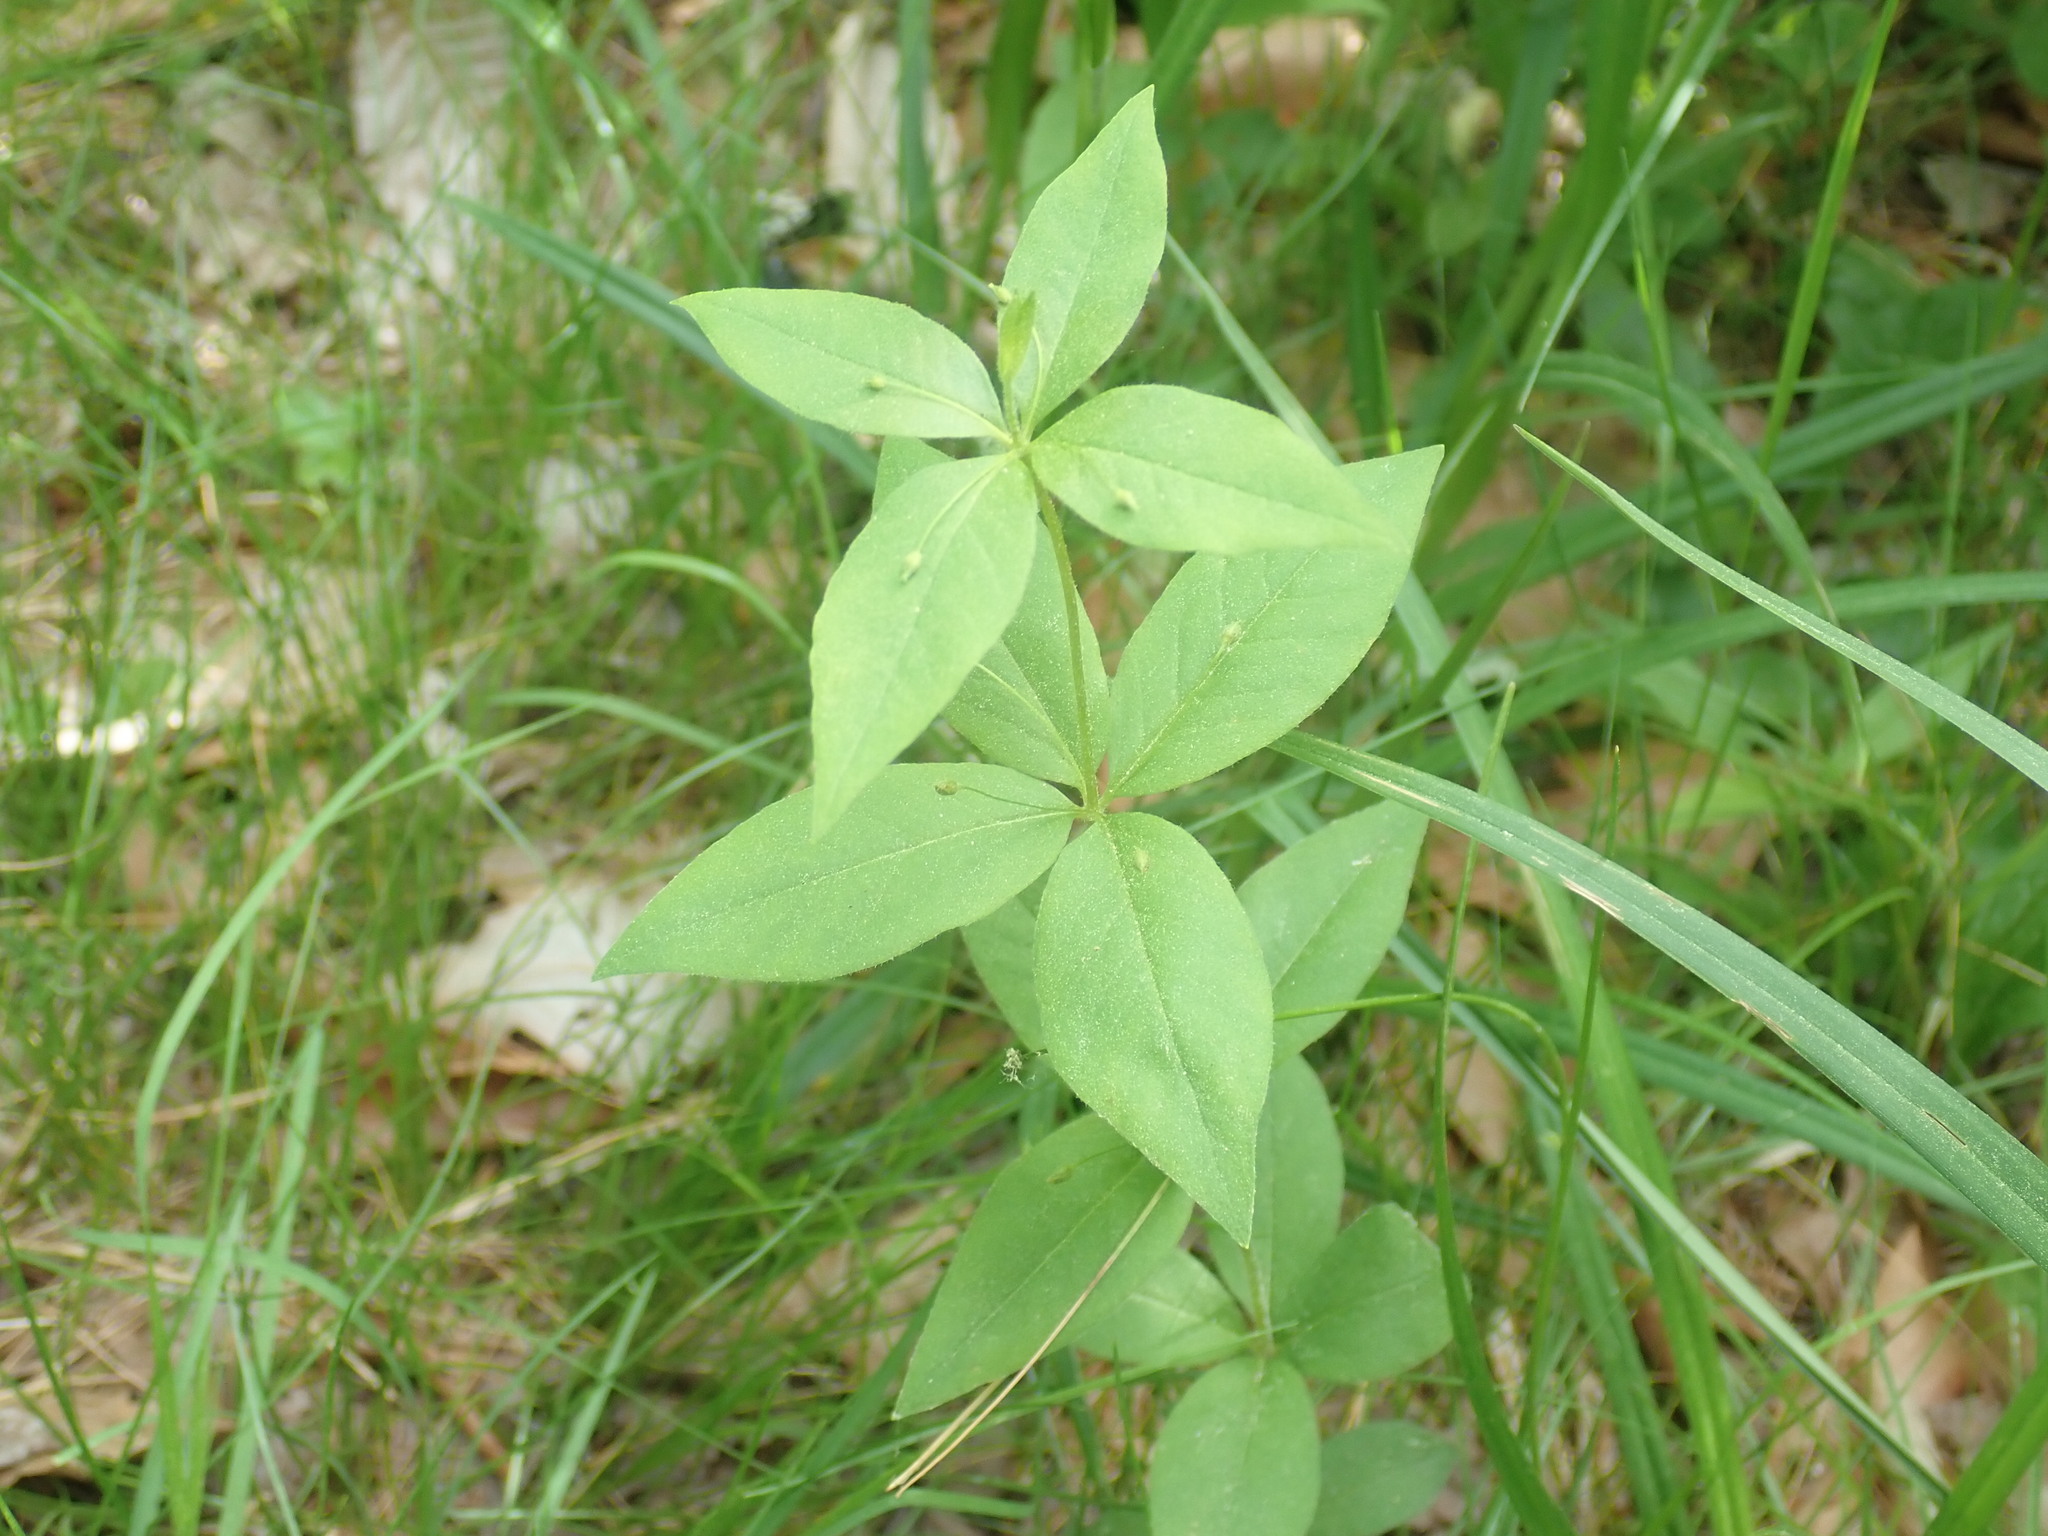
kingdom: Plantae
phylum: Tracheophyta
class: Magnoliopsida
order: Ericales
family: Primulaceae
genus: Lysimachia
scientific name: Lysimachia quadrifolia
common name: Whorled loosestrife
